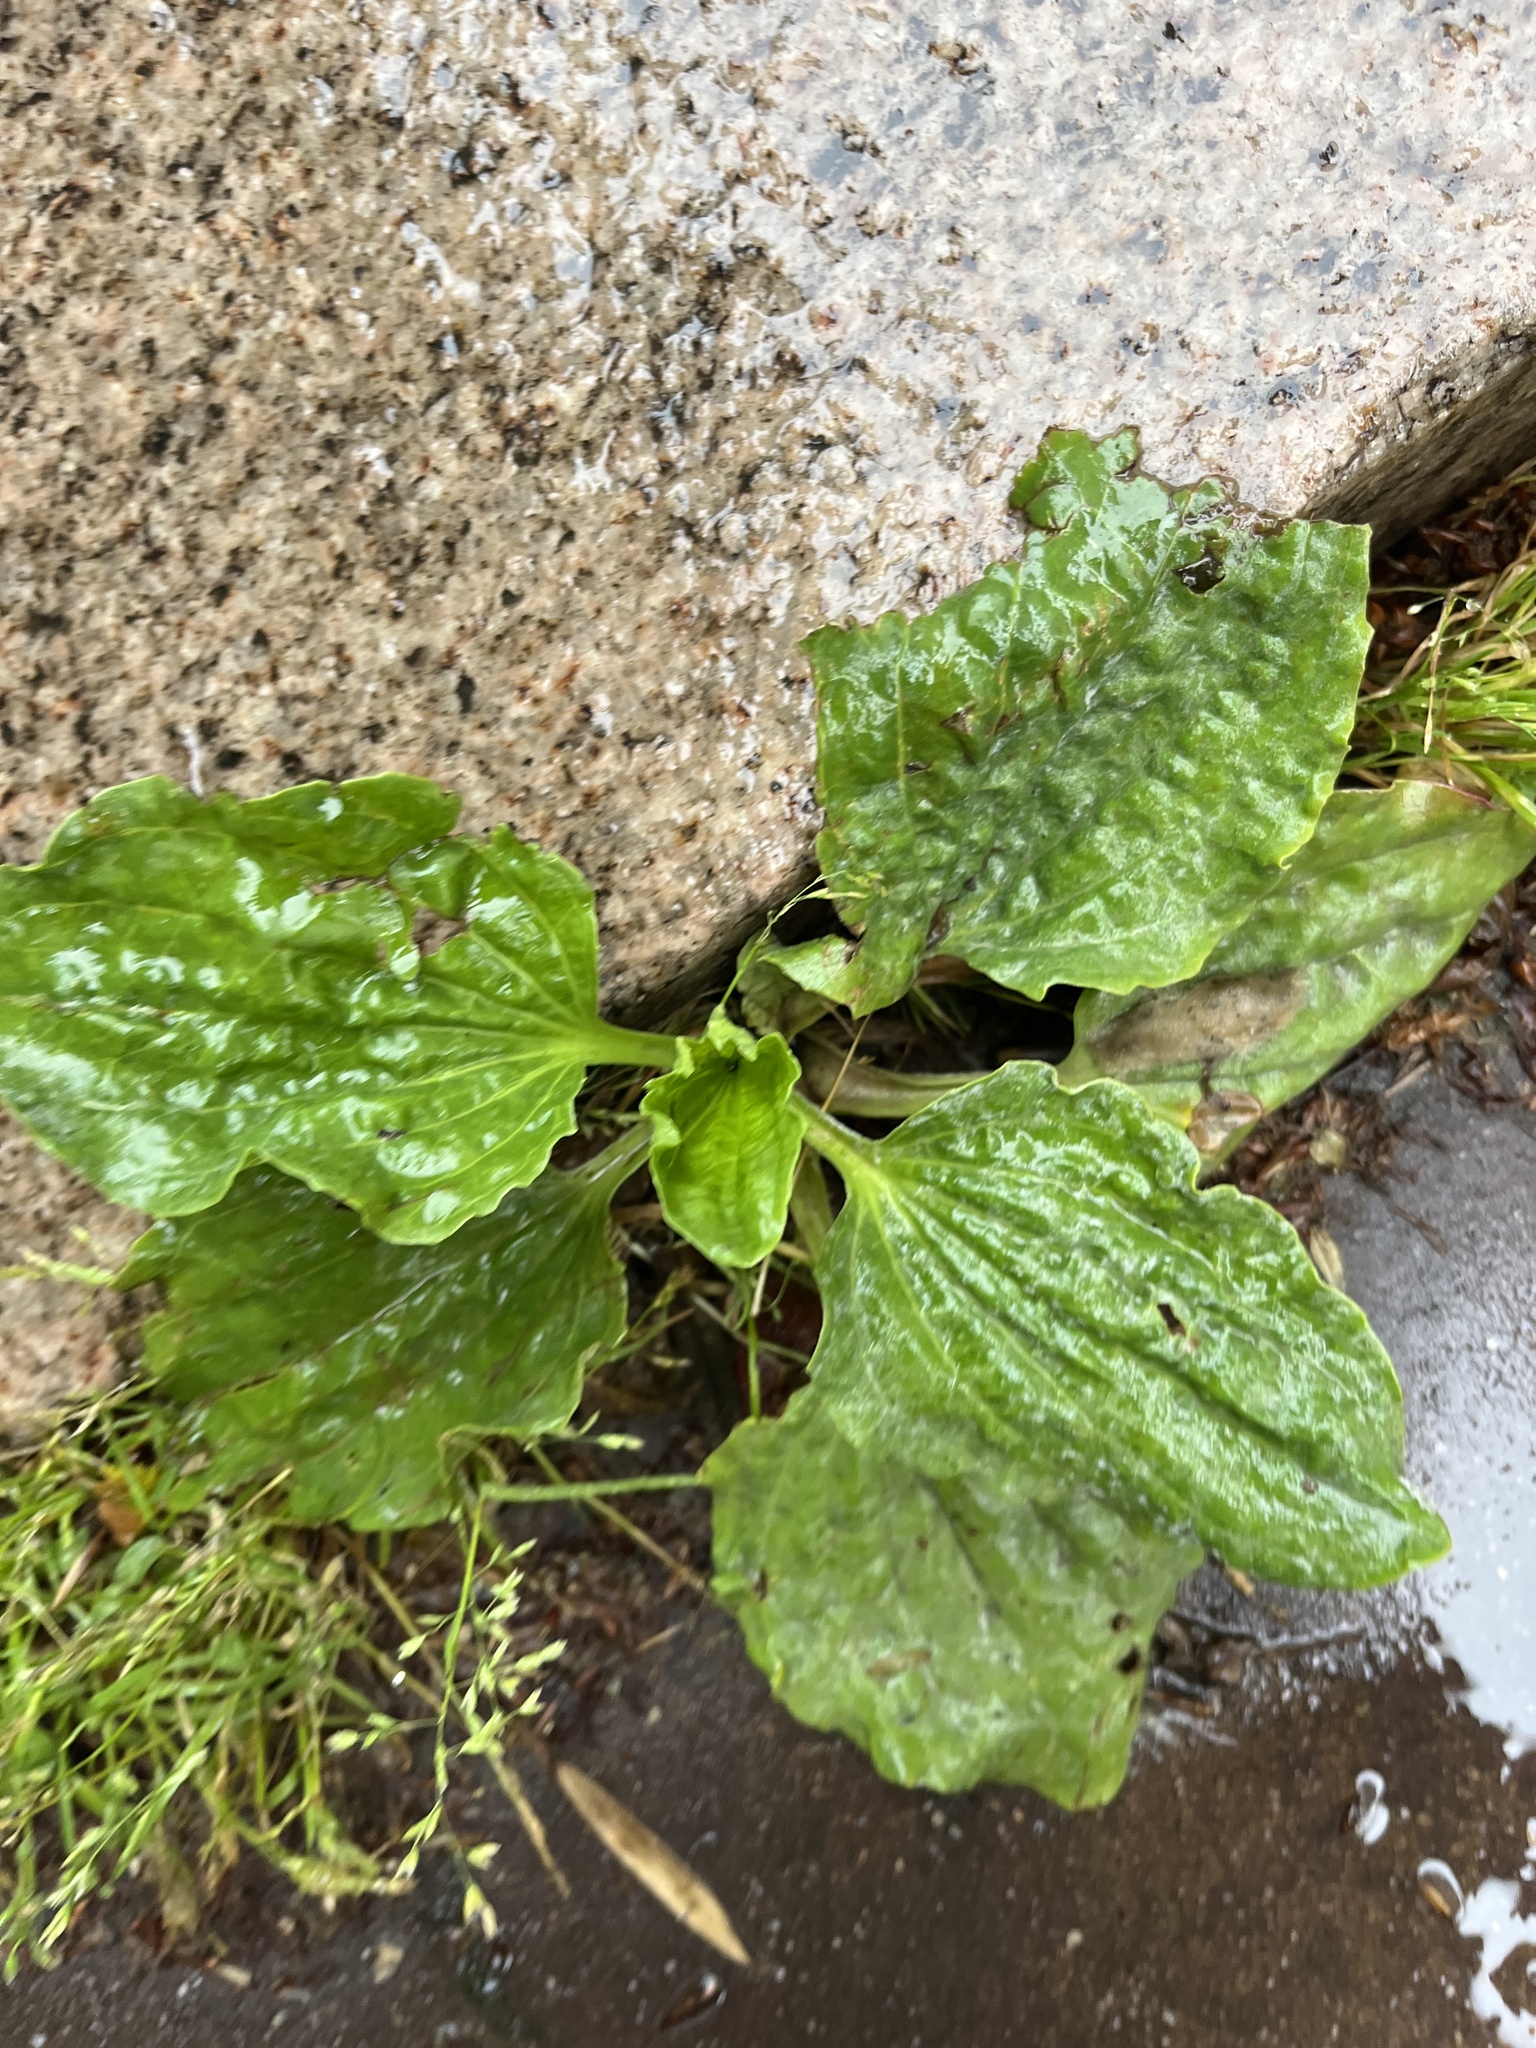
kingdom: Plantae
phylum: Tracheophyta
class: Magnoliopsida
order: Lamiales
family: Plantaginaceae
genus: Plantago
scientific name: Plantago major
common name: Common plantain
